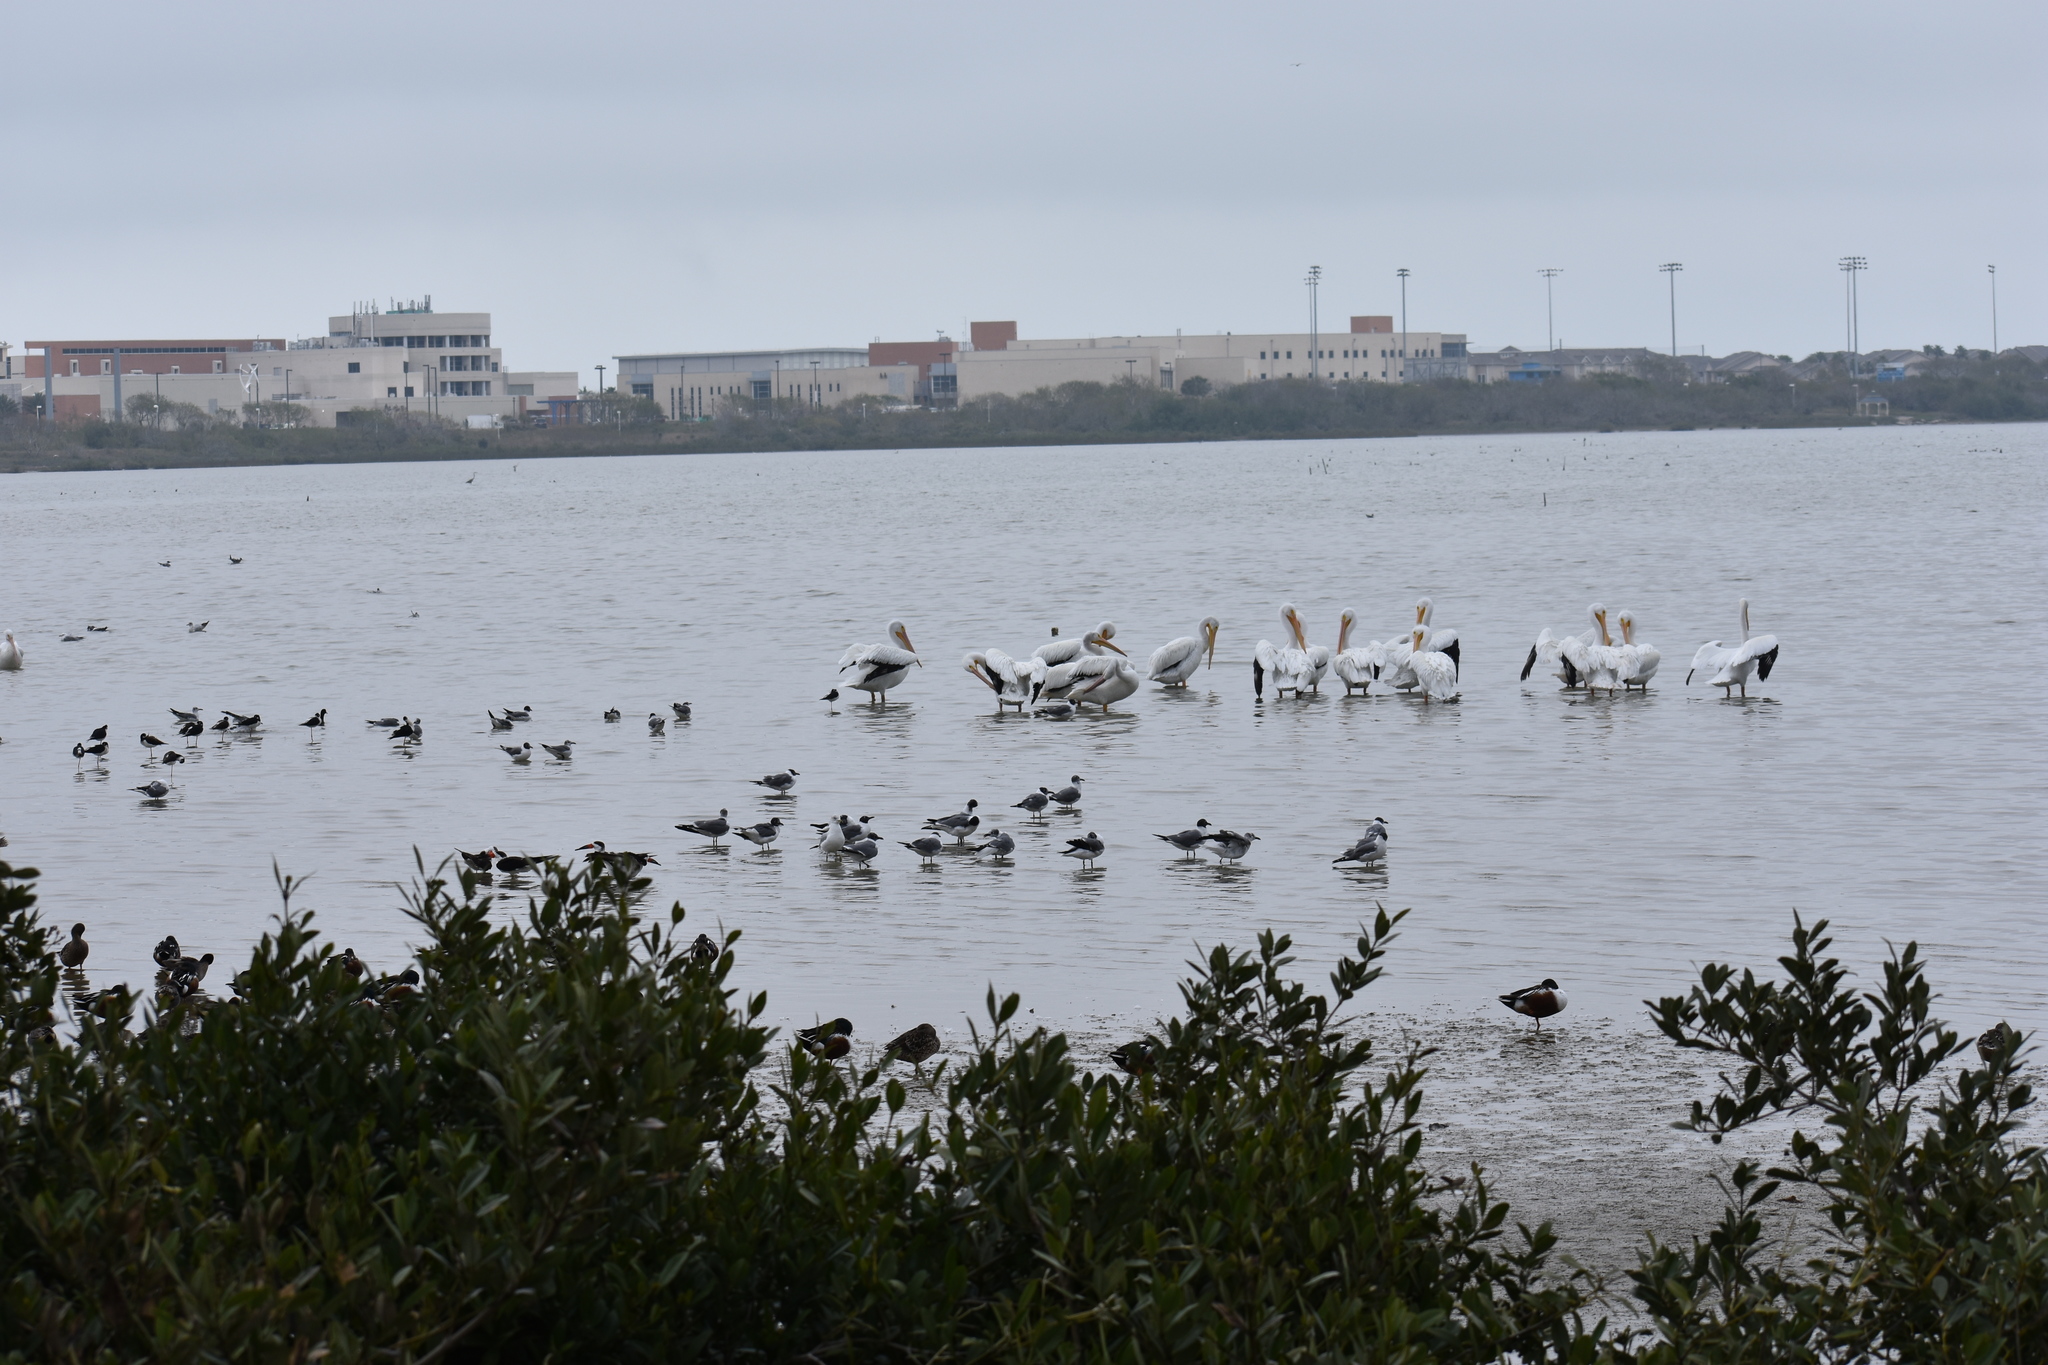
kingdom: Animalia
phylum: Chordata
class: Aves
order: Anseriformes
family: Anatidae
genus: Spatula
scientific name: Spatula clypeata
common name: Northern shoveler
